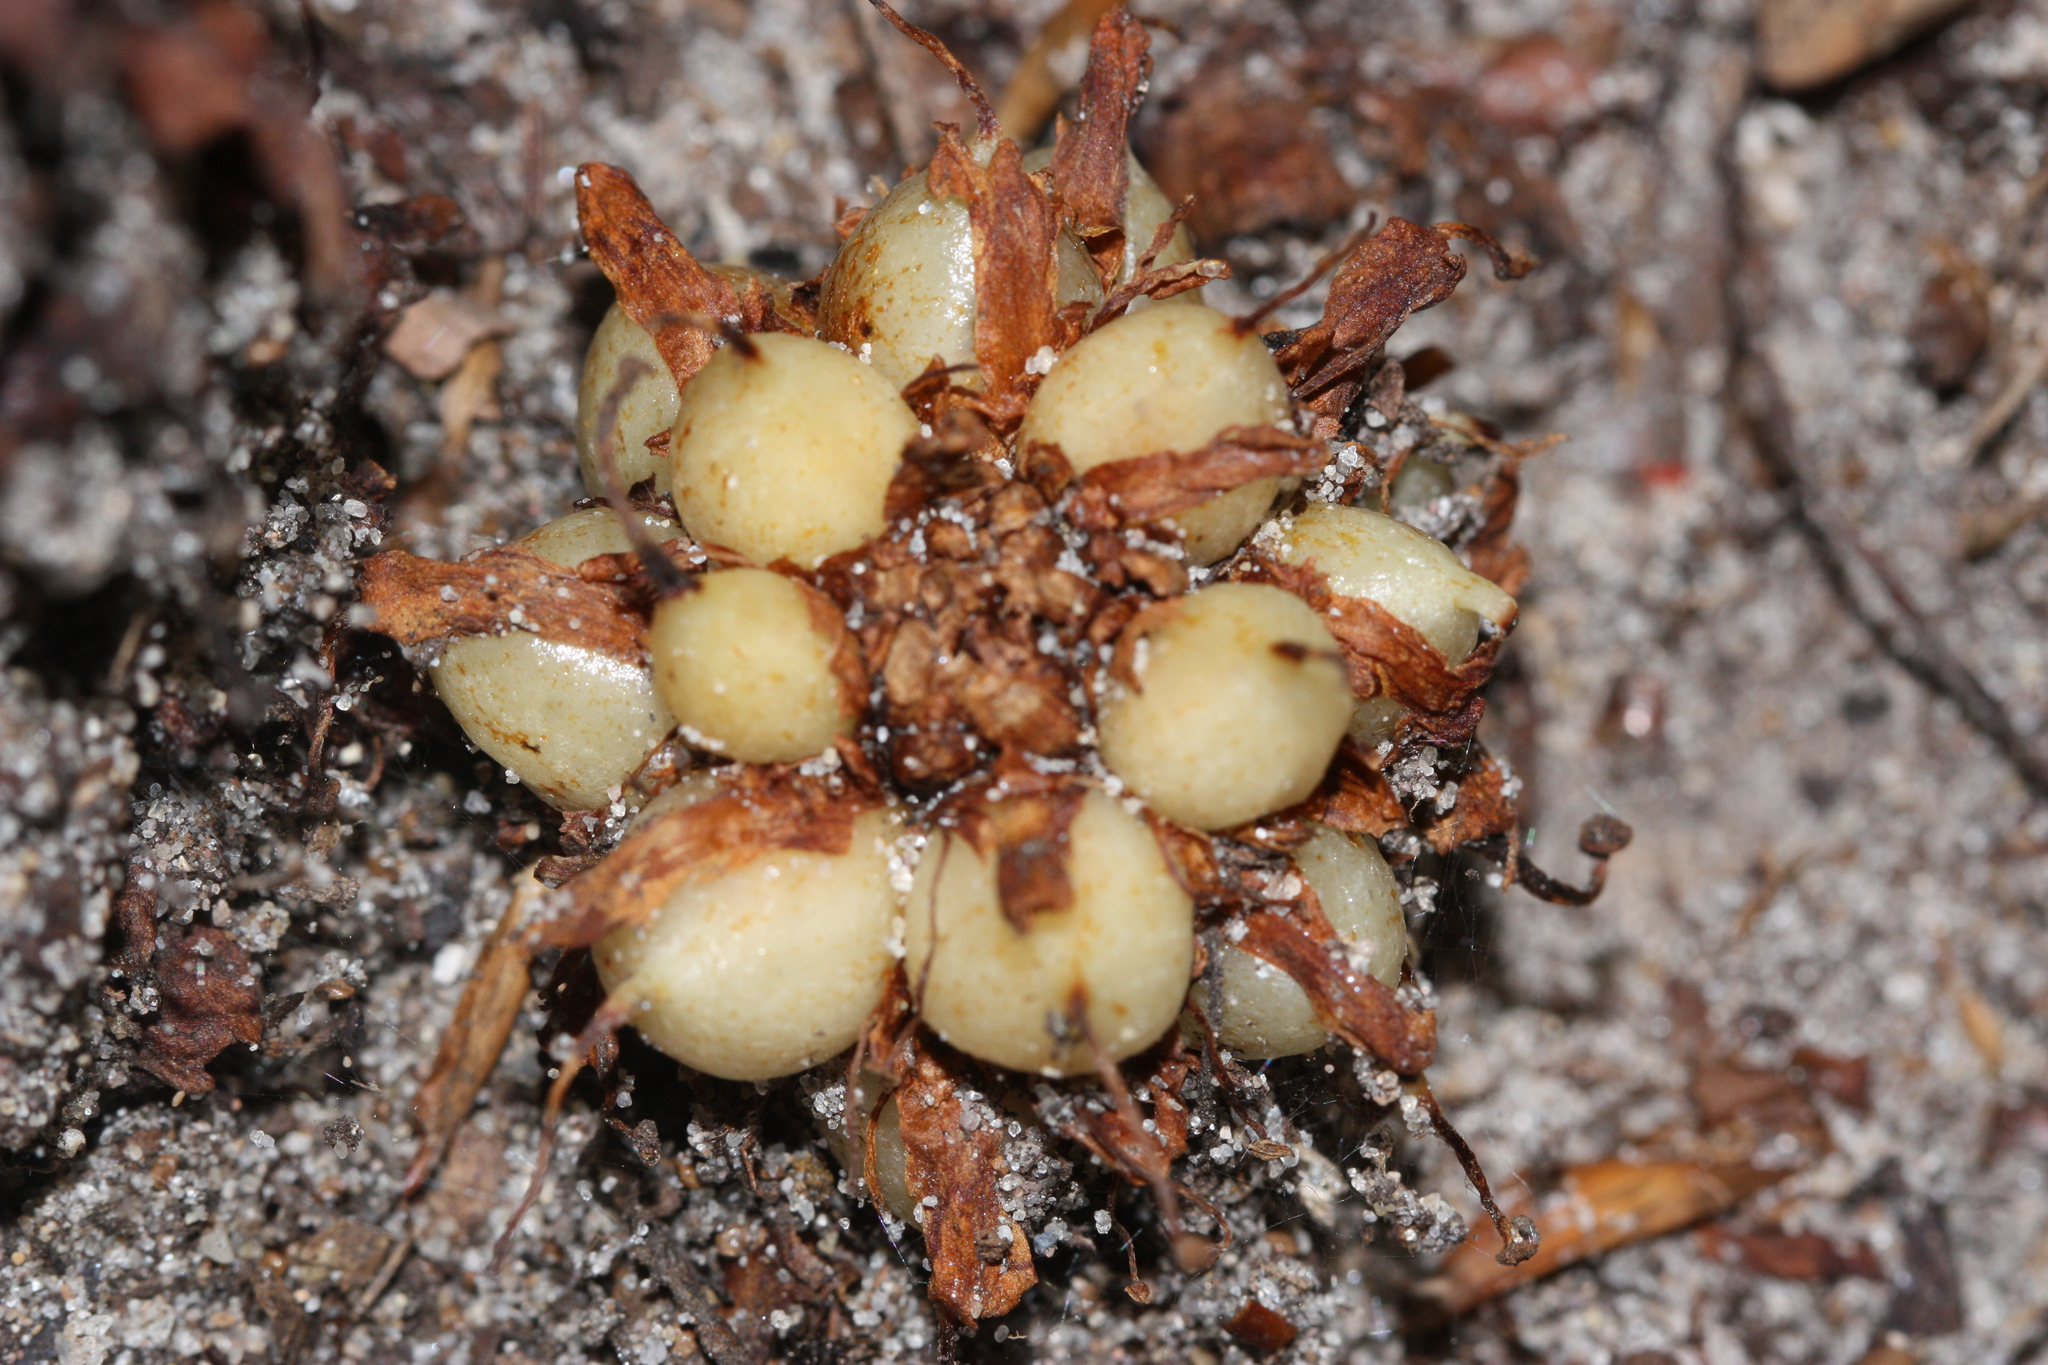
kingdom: Plantae
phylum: Tracheophyta
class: Magnoliopsida
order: Lamiales
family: Orobanchaceae
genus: Conopholis
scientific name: Conopholis americana
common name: American cancer-root
